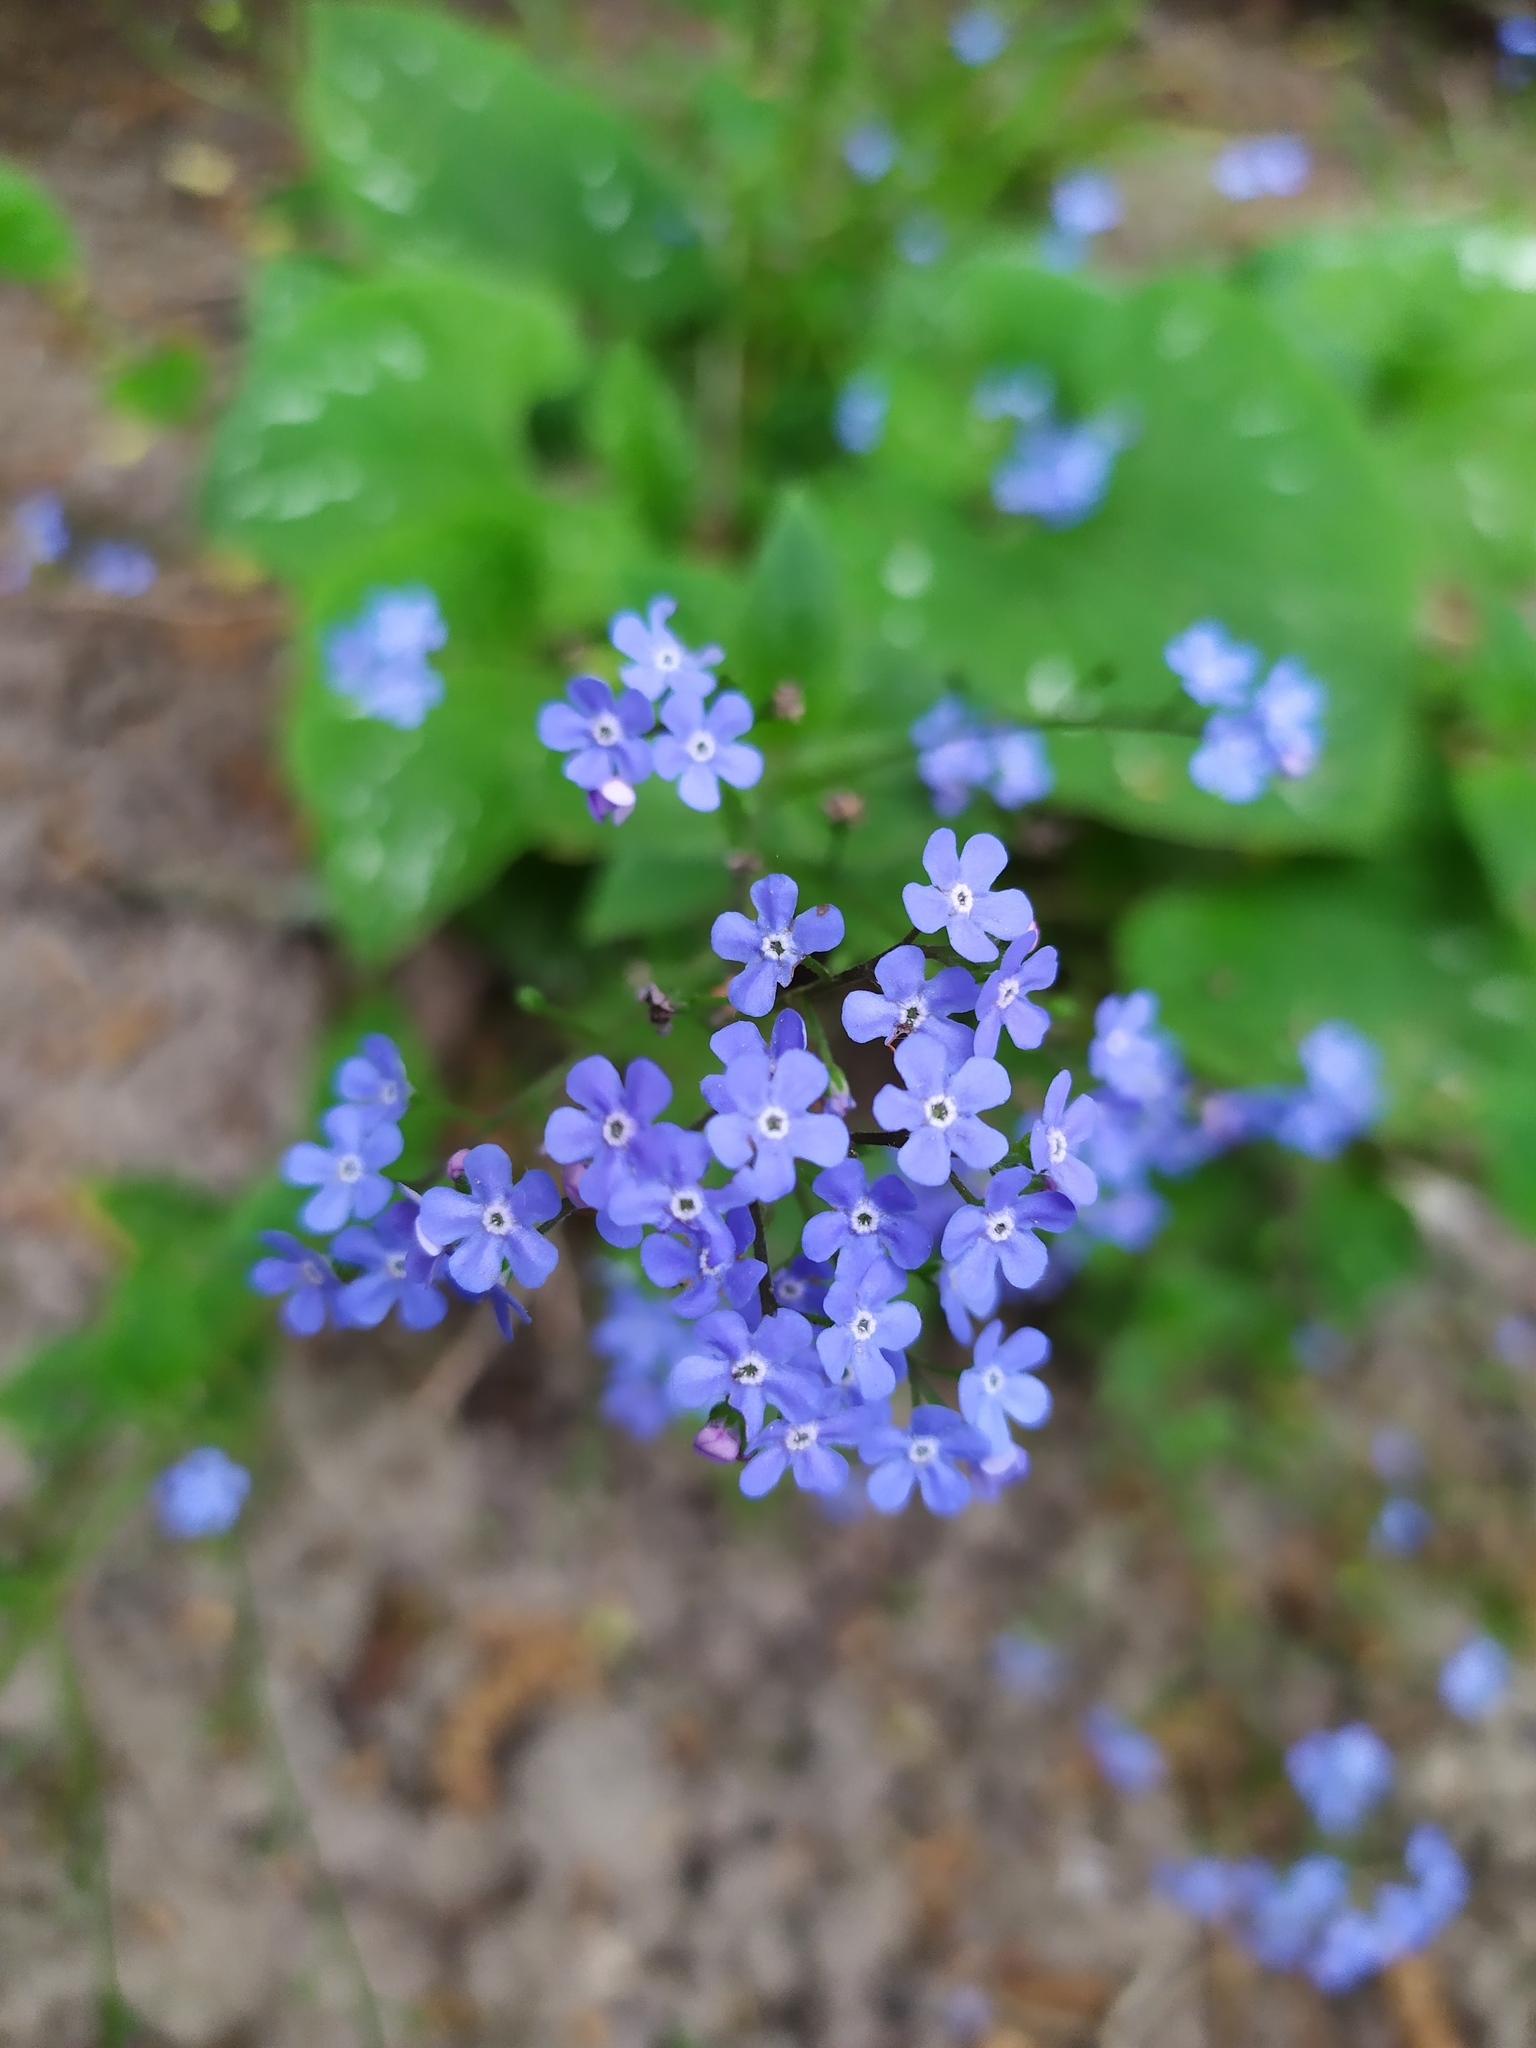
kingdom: Plantae
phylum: Tracheophyta
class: Magnoliopsida
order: Boraginales
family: Boraginaceae
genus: Brunnera
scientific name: Brunnera macrophylla
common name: Great forget-me-not
